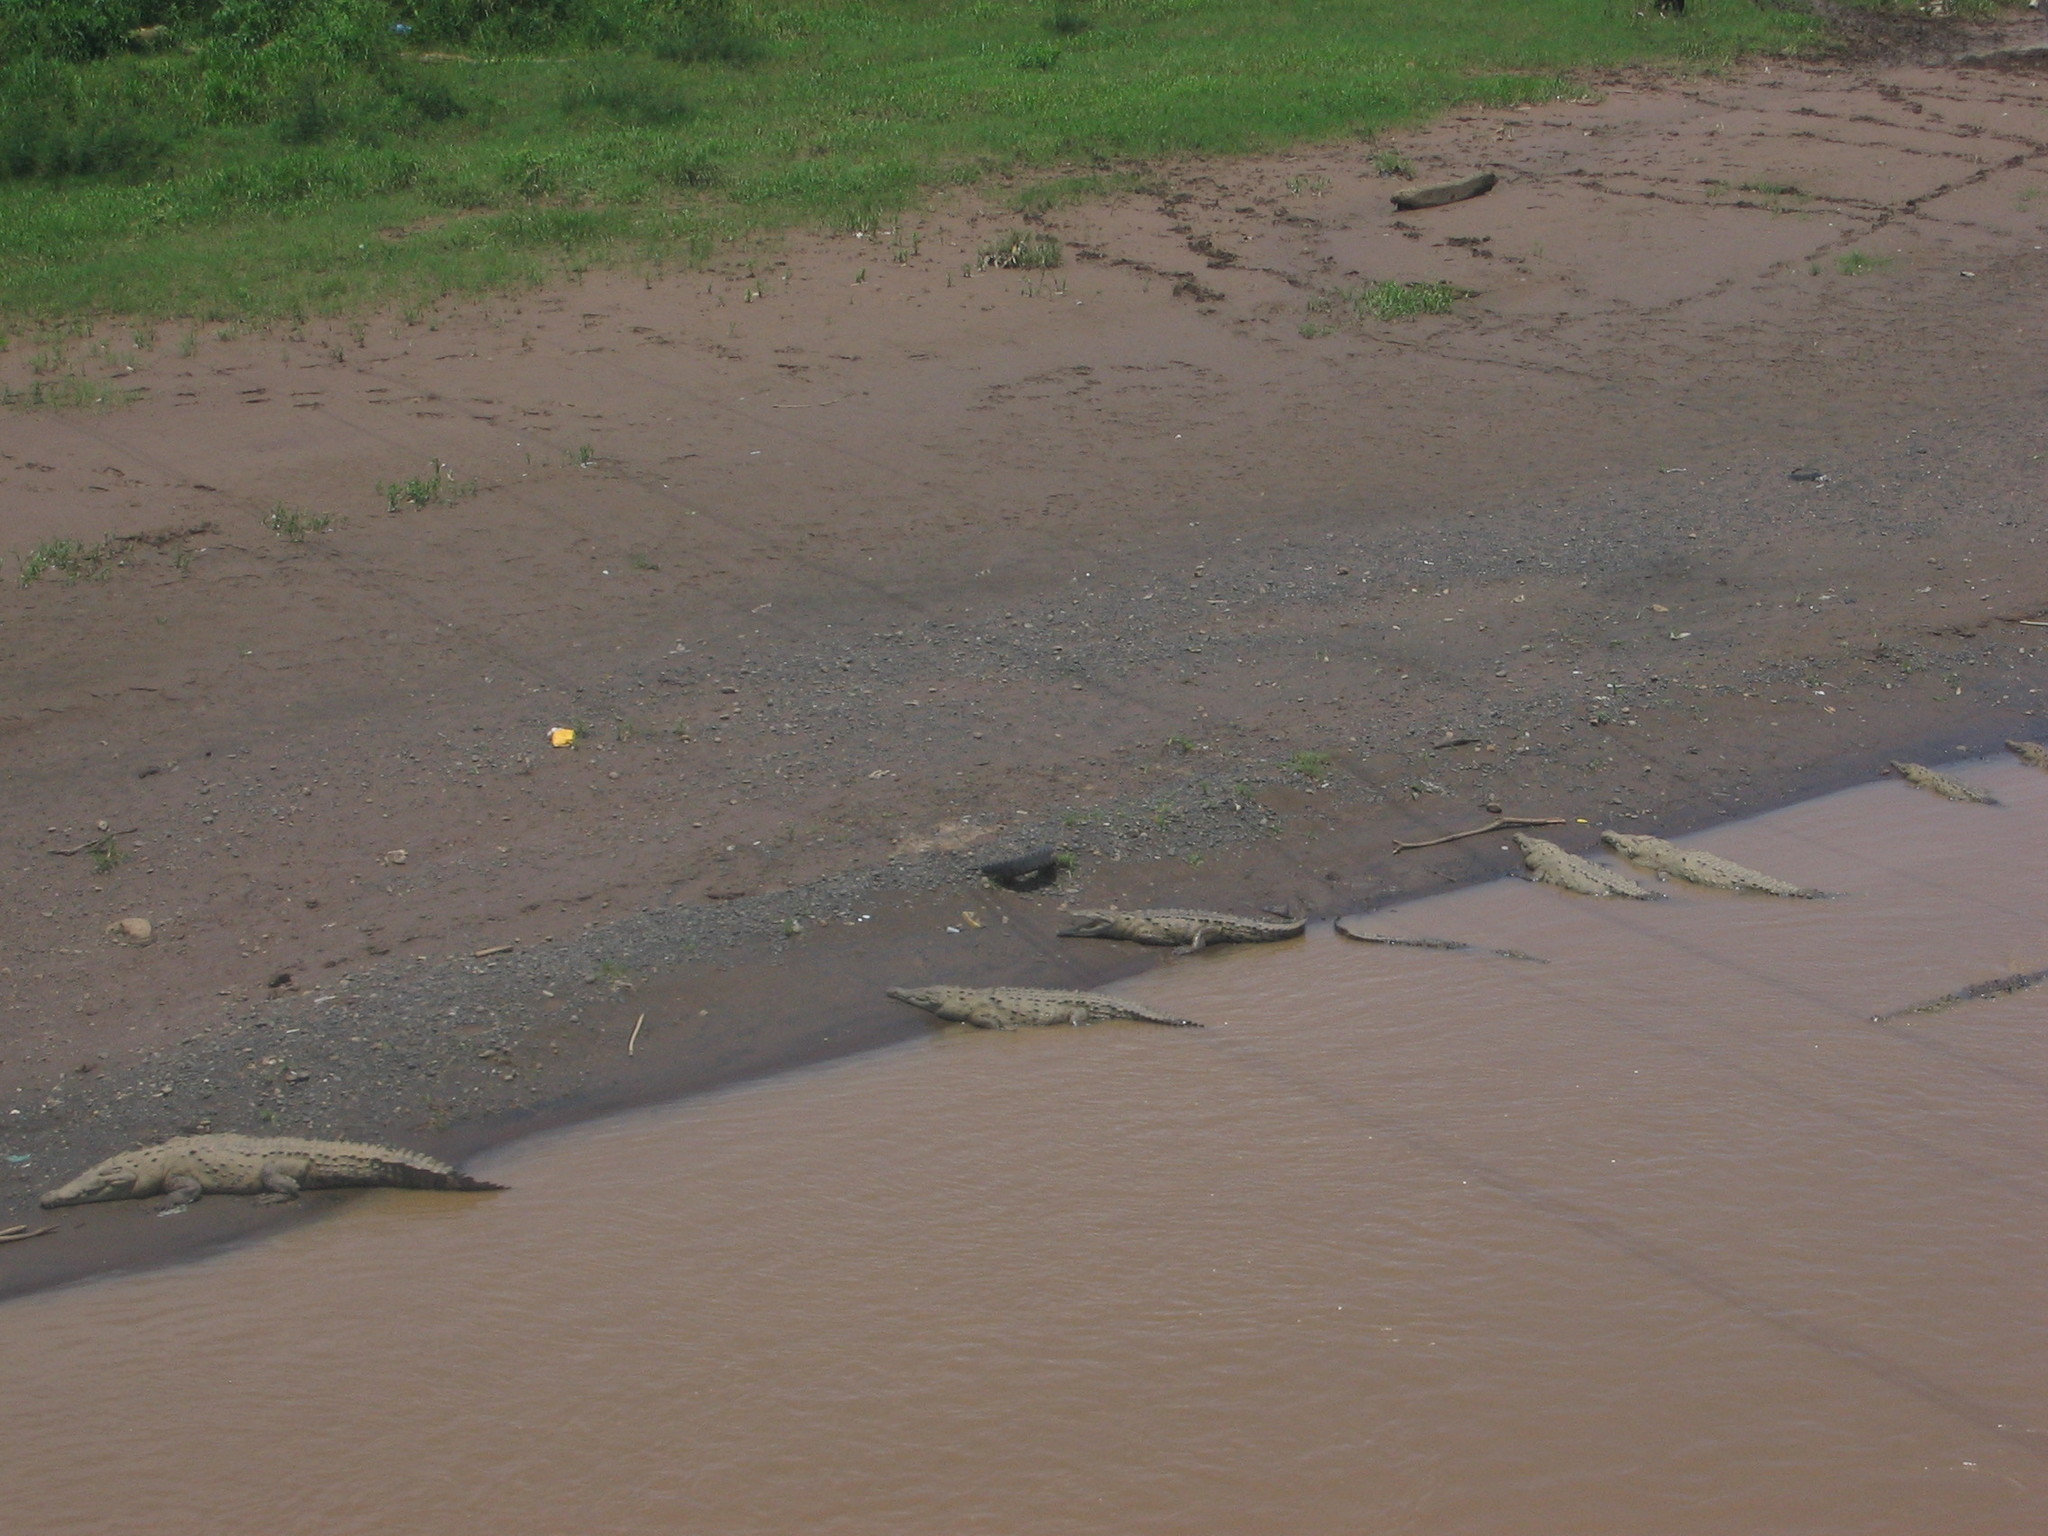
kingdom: Animalia
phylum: Chordata
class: Crocodylia
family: Crocodylidae
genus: Crocodylus
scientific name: Crocodylus acutus
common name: American crocodile
